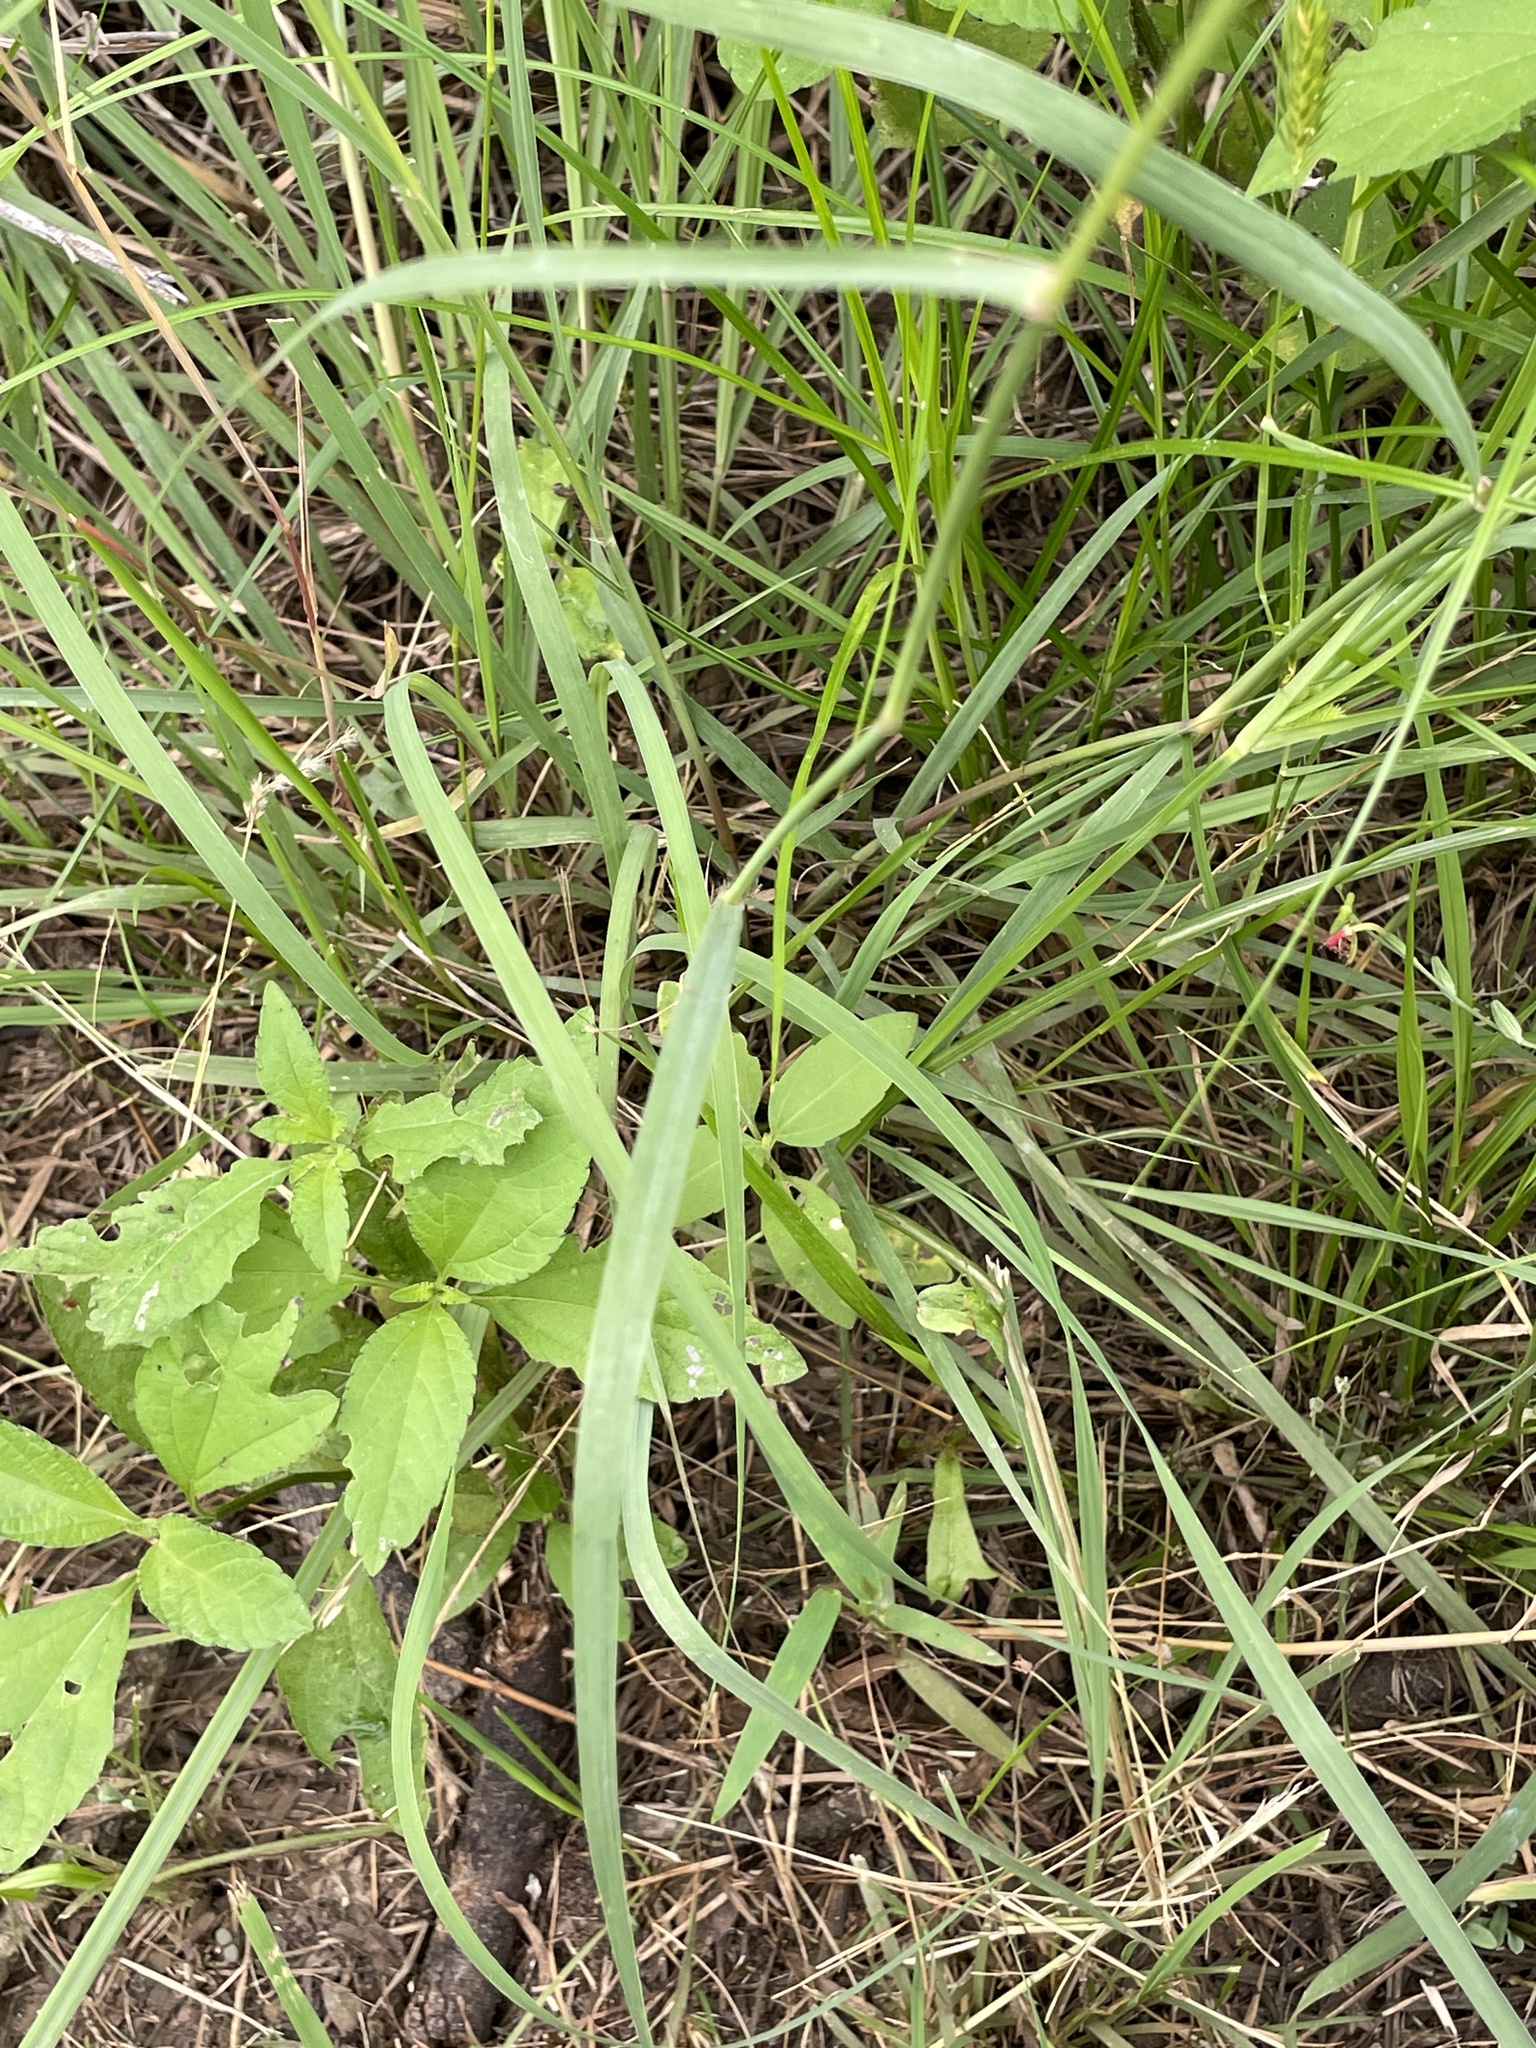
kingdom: Plantae
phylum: Tracheophyta
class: Liliopsida
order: Poales
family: Poaceae
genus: Stapfochloa
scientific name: Stapfochloa canterae
